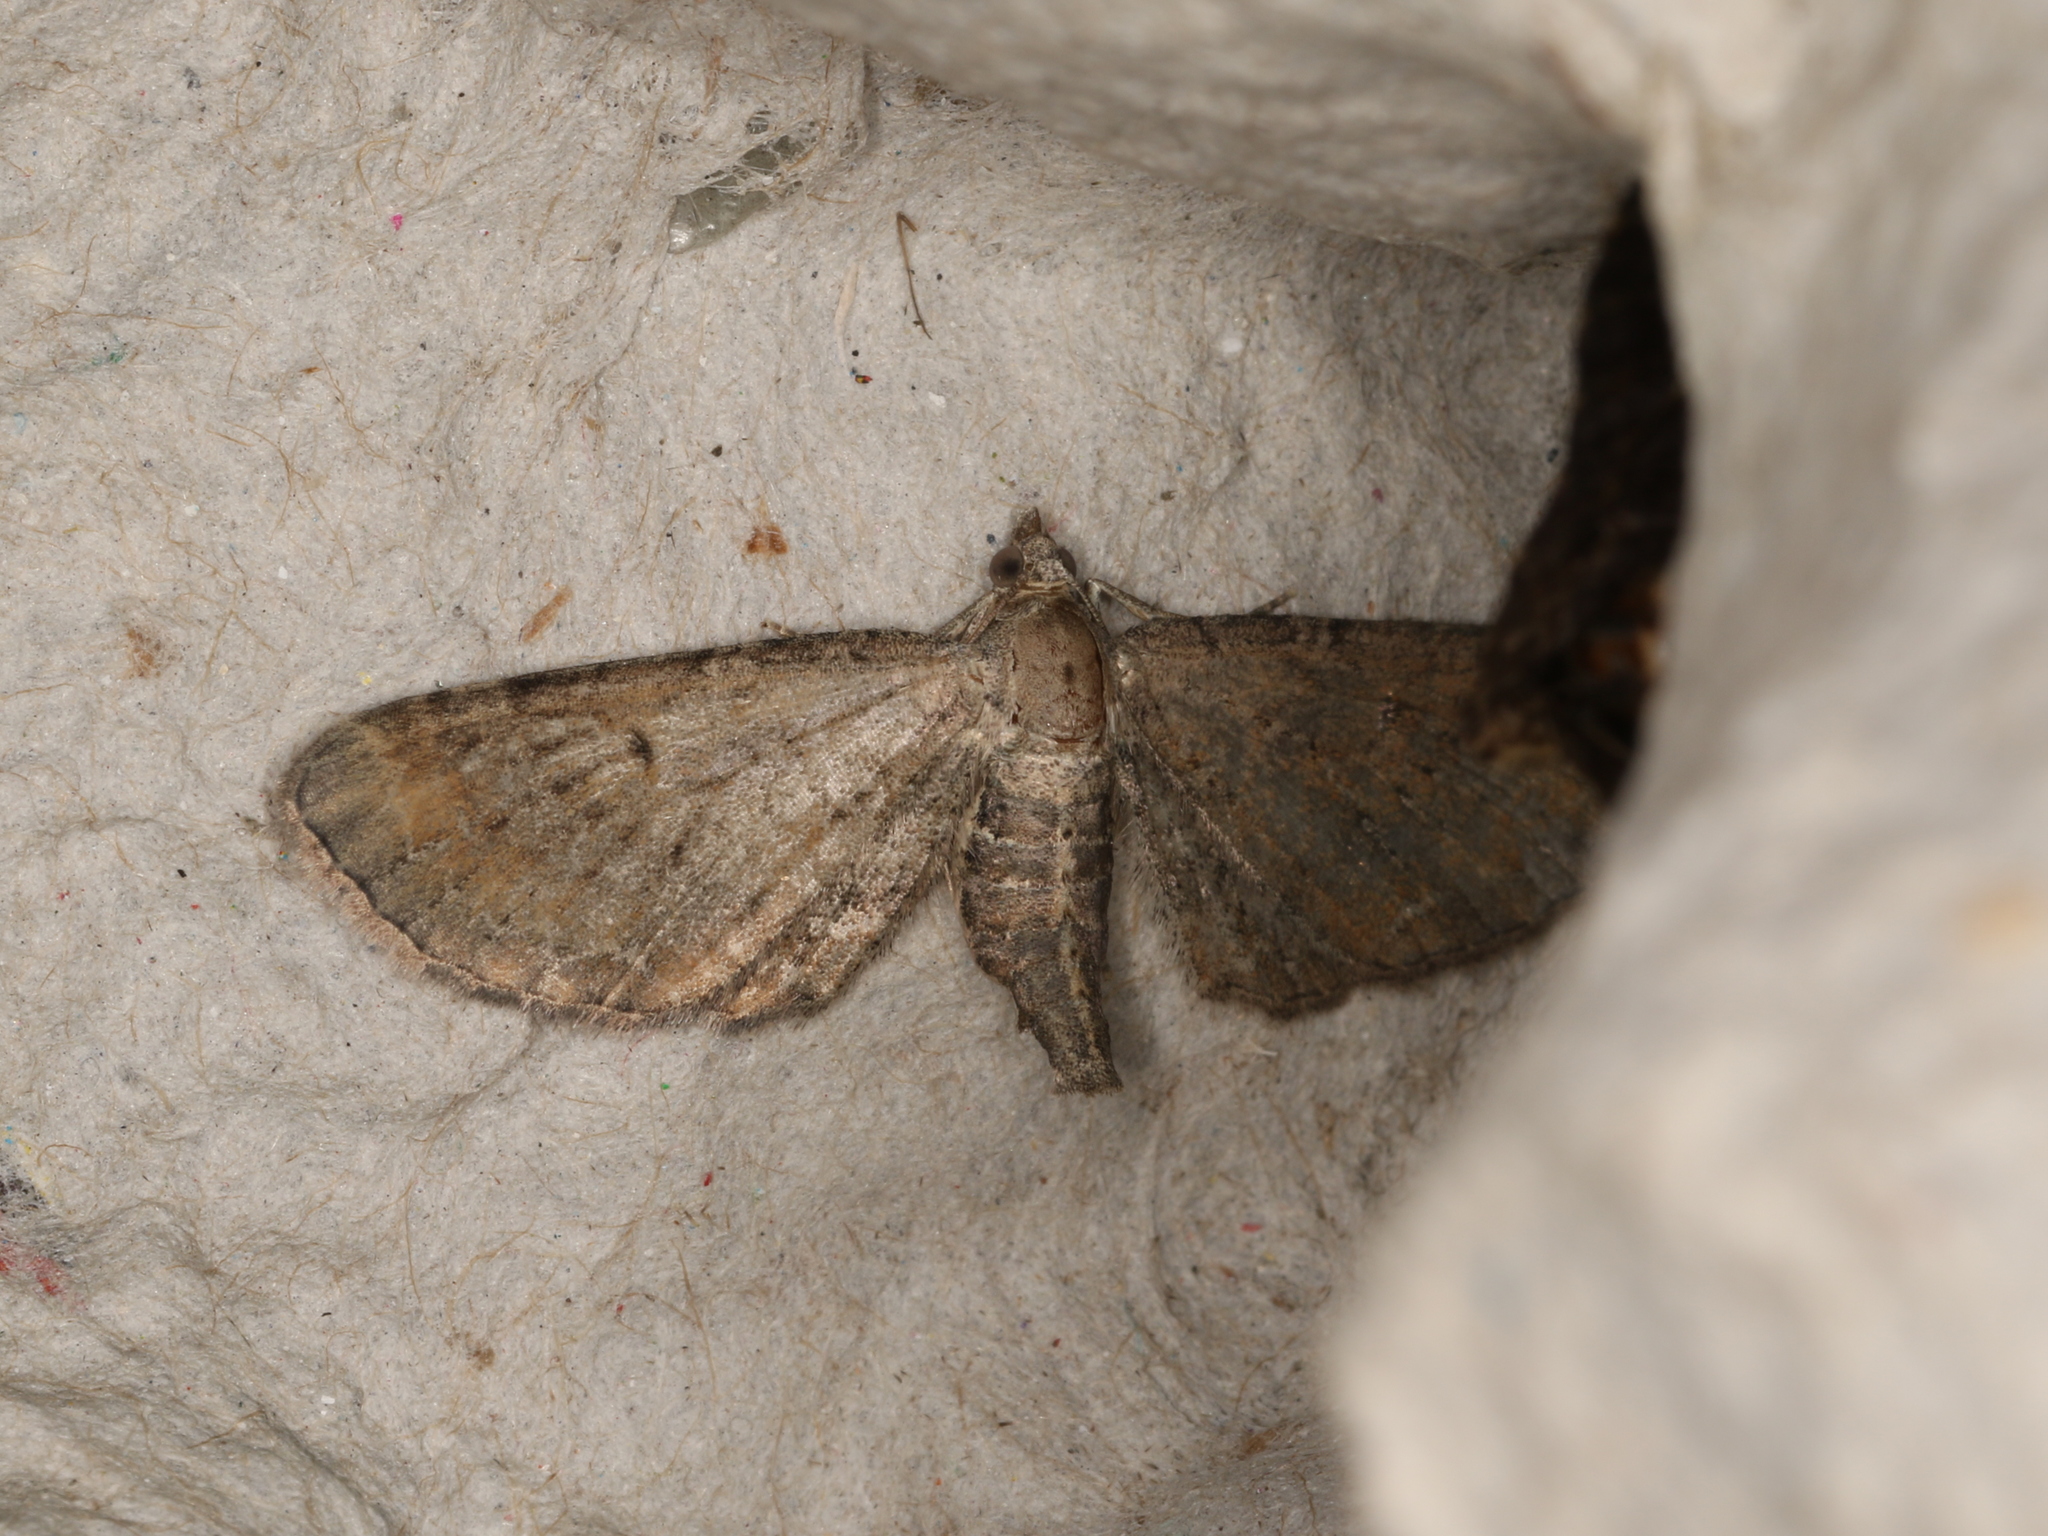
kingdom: Animalia
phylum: Arthropoda
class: Insecta
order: Lepidoptera
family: Geometridae
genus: Eupithecia
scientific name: Eupithecia absinthiata
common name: Wormwood pug
